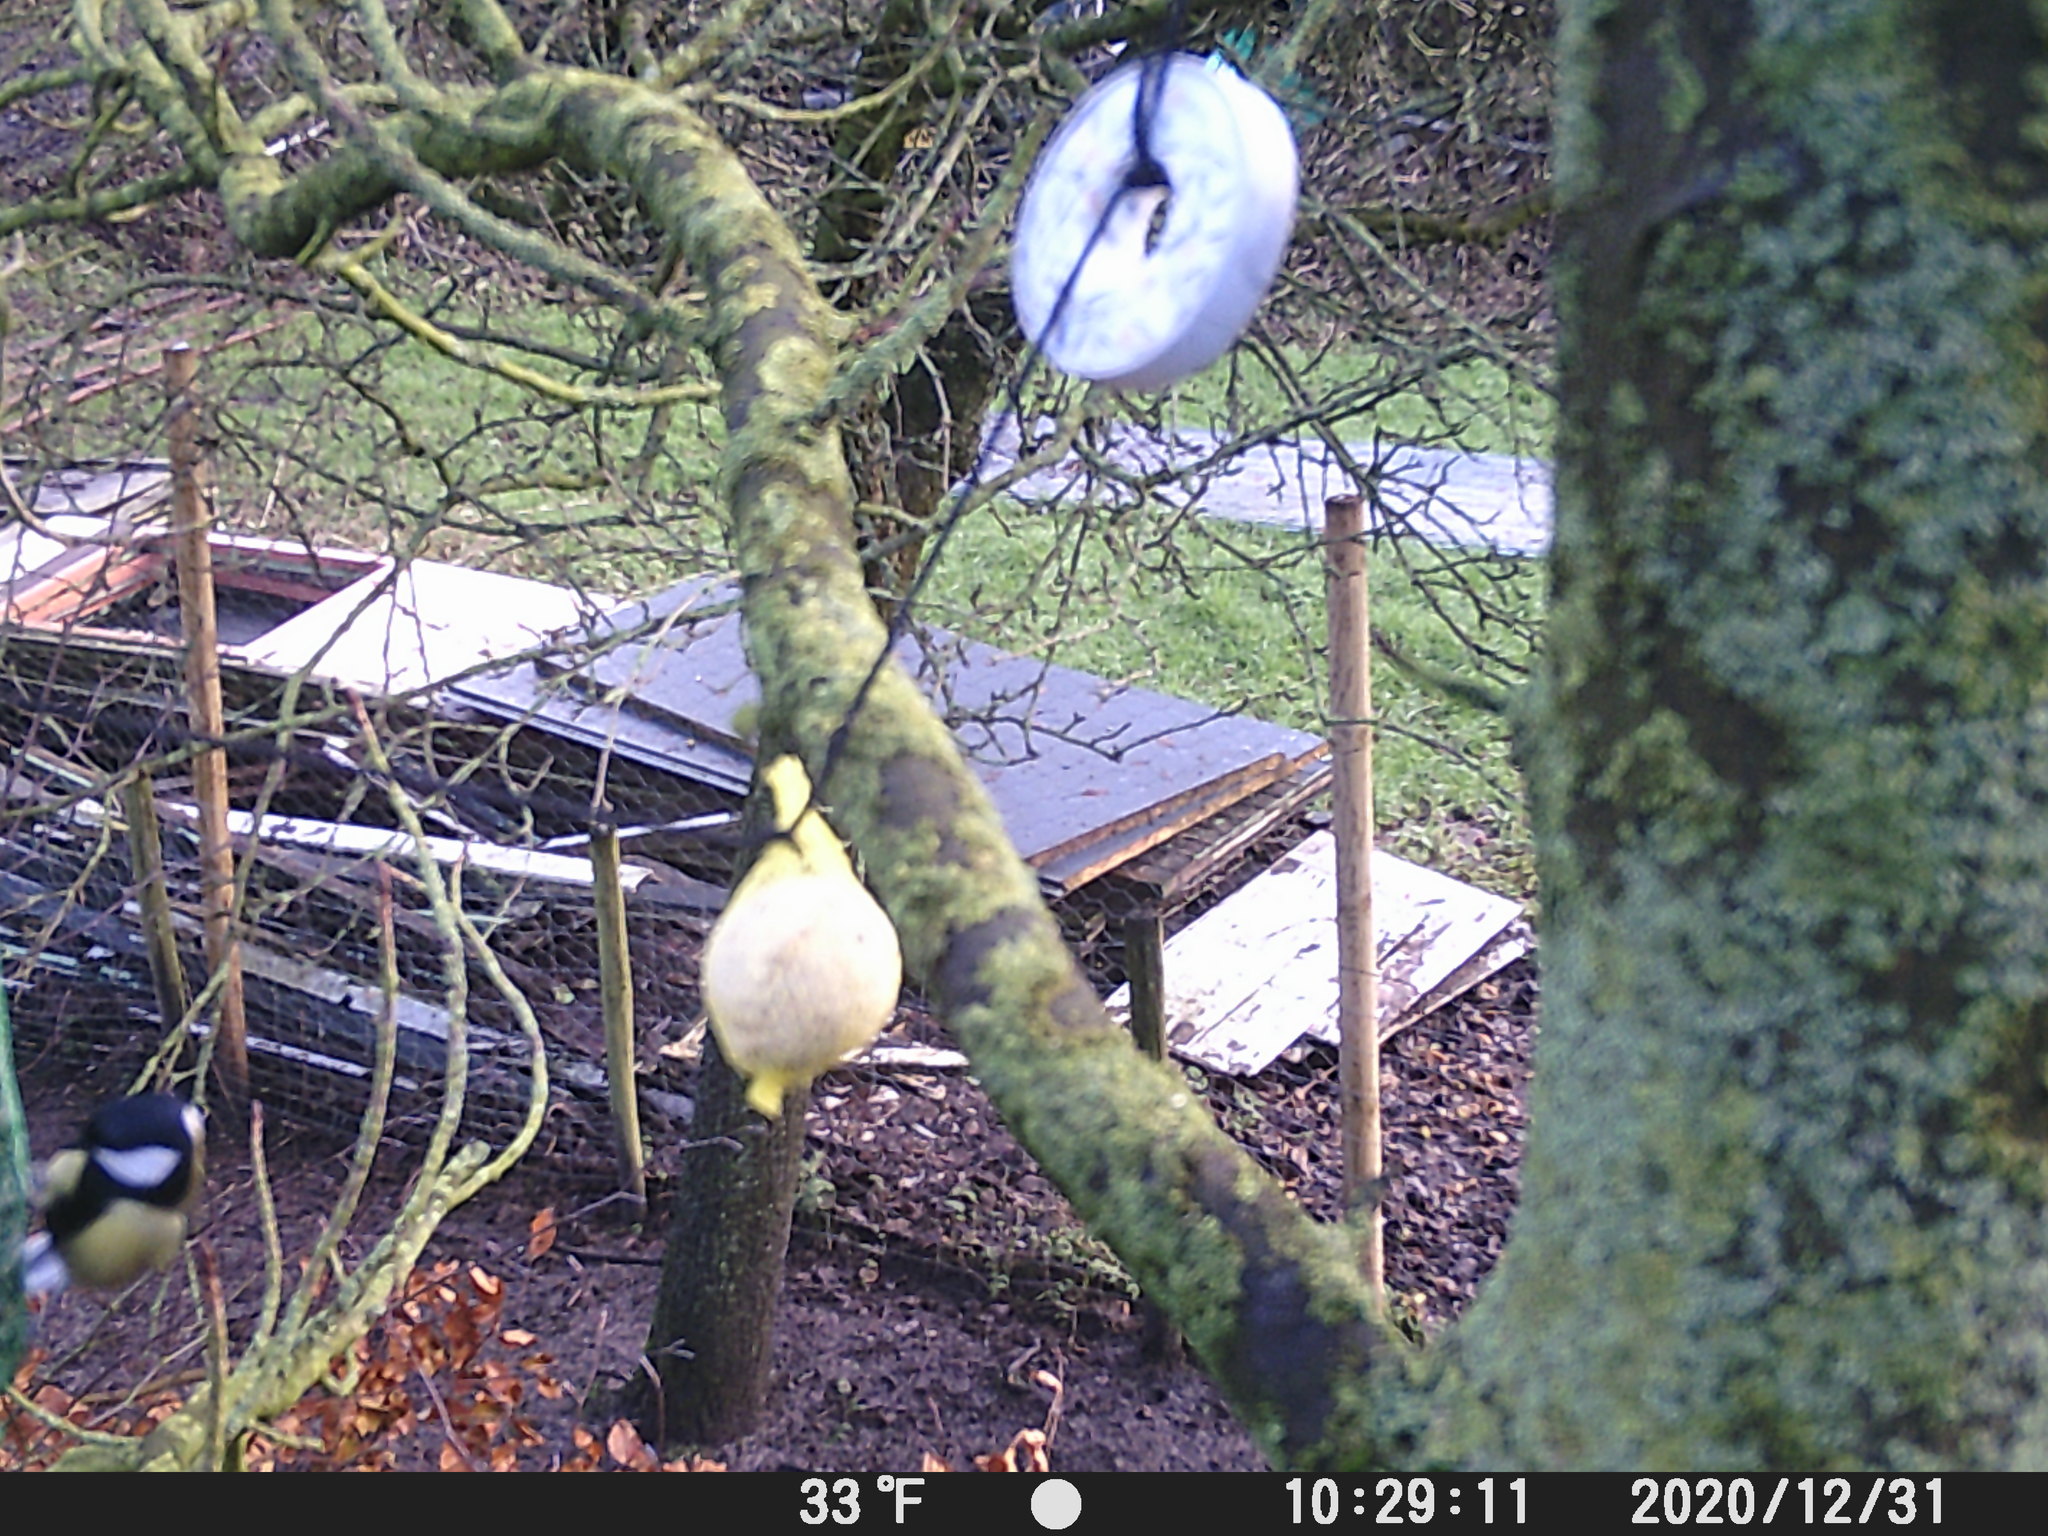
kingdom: Animalia
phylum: Chordata
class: Aves
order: Passeriformes
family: Paridae
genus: Parus
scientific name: Parus major
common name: Great tit
